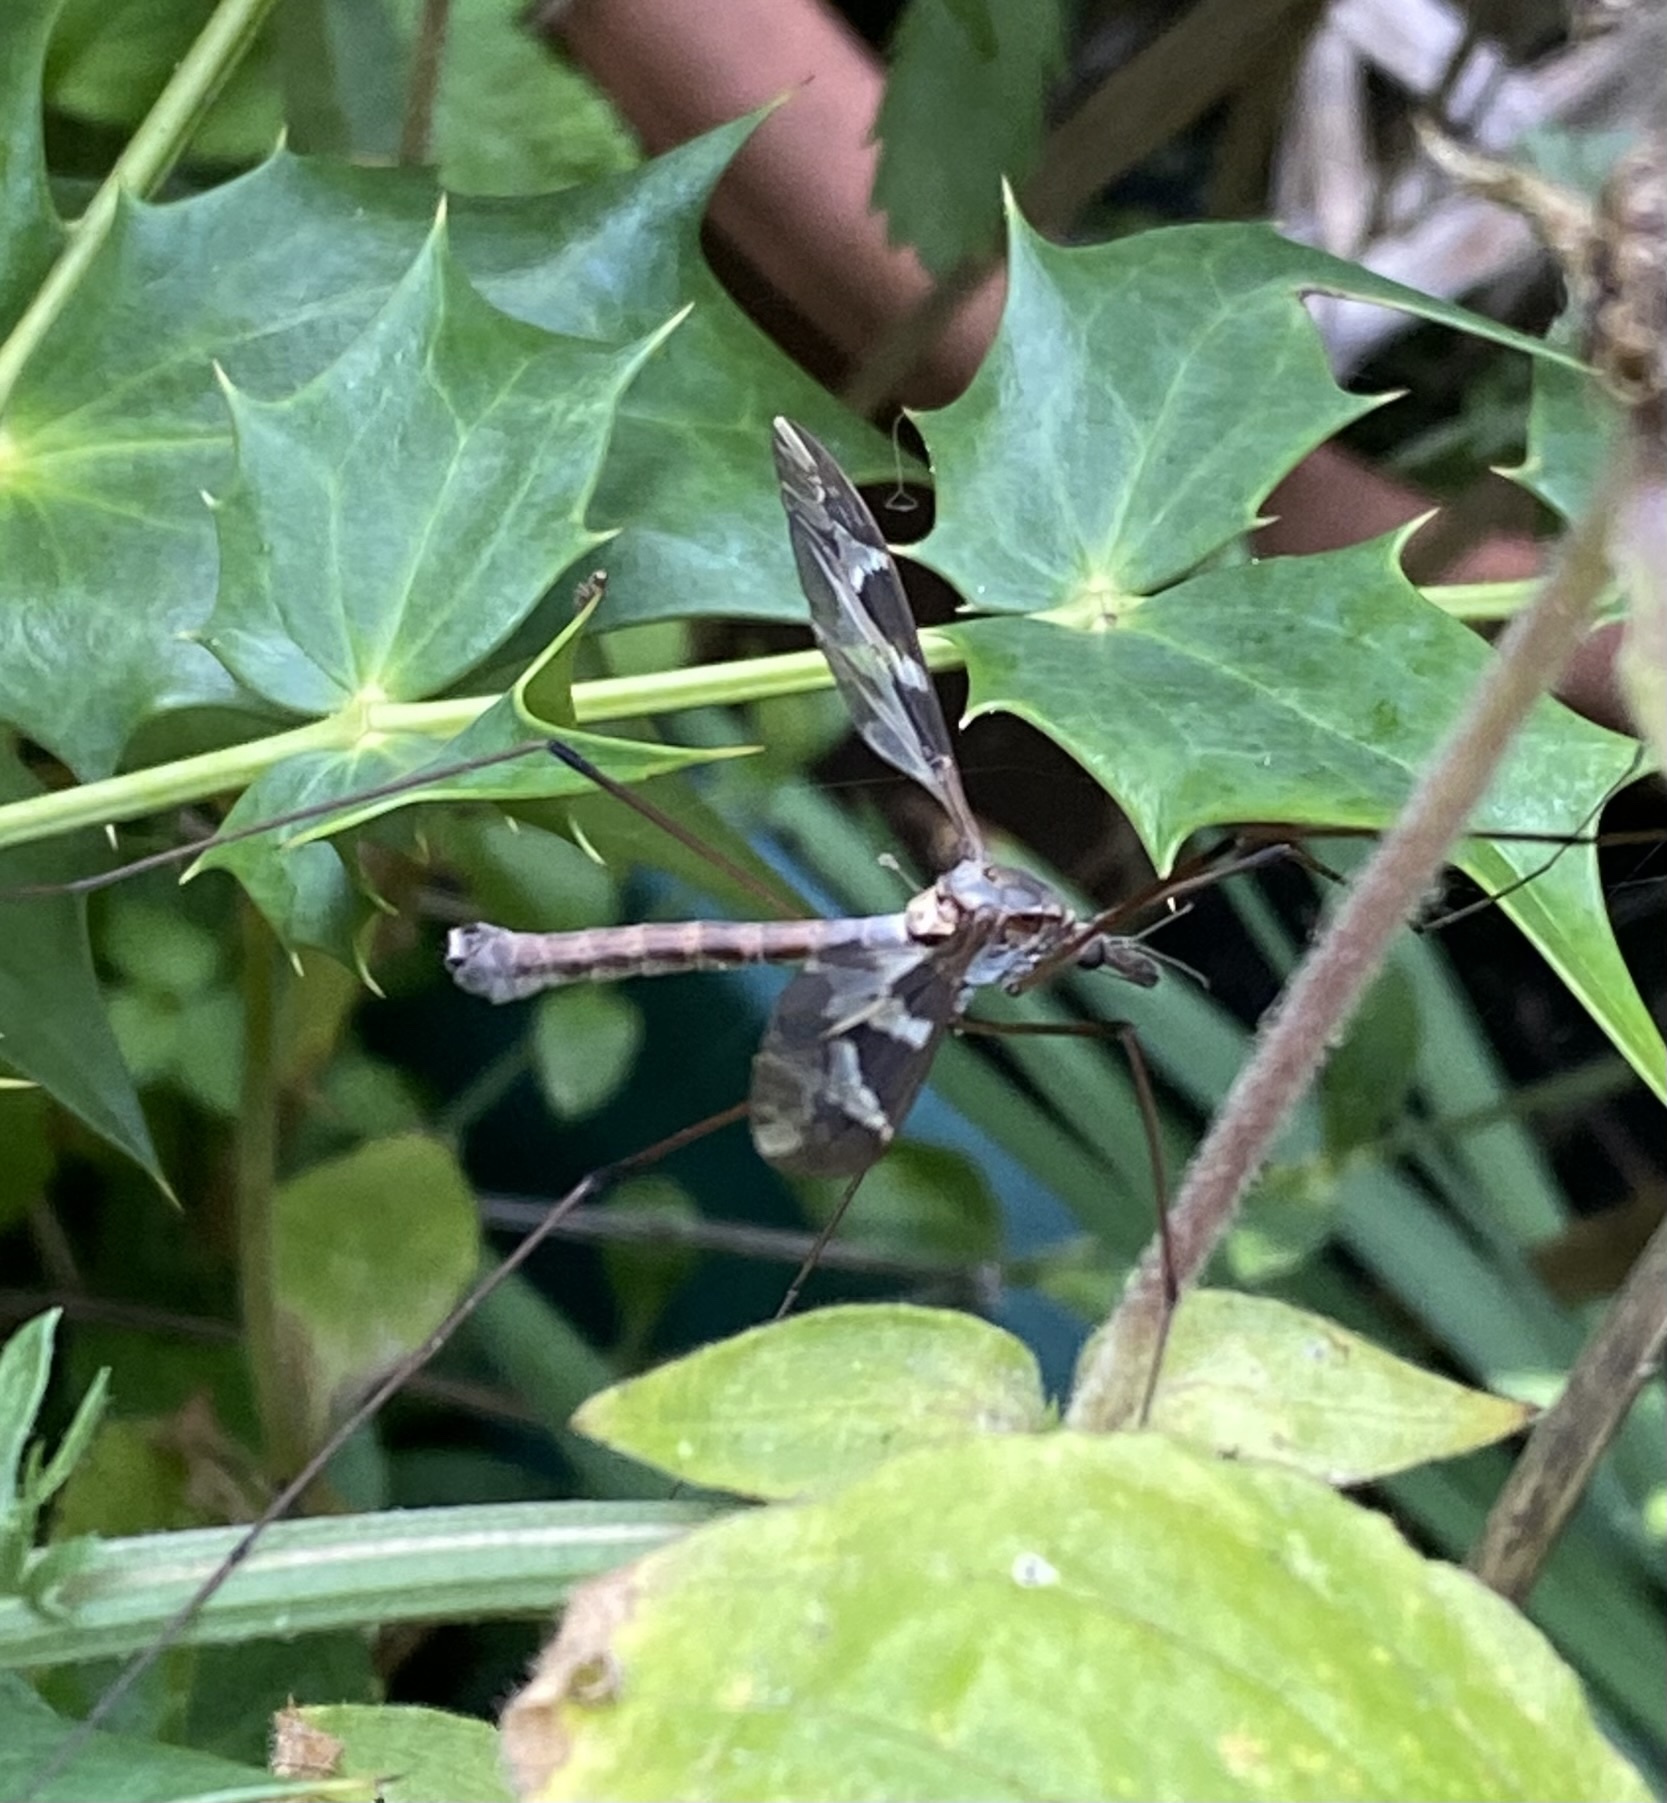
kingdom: Animalia
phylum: Arthropoda
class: Insecta
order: Diptera
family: Tipulidae
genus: Tipula
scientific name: Tipula maxima
